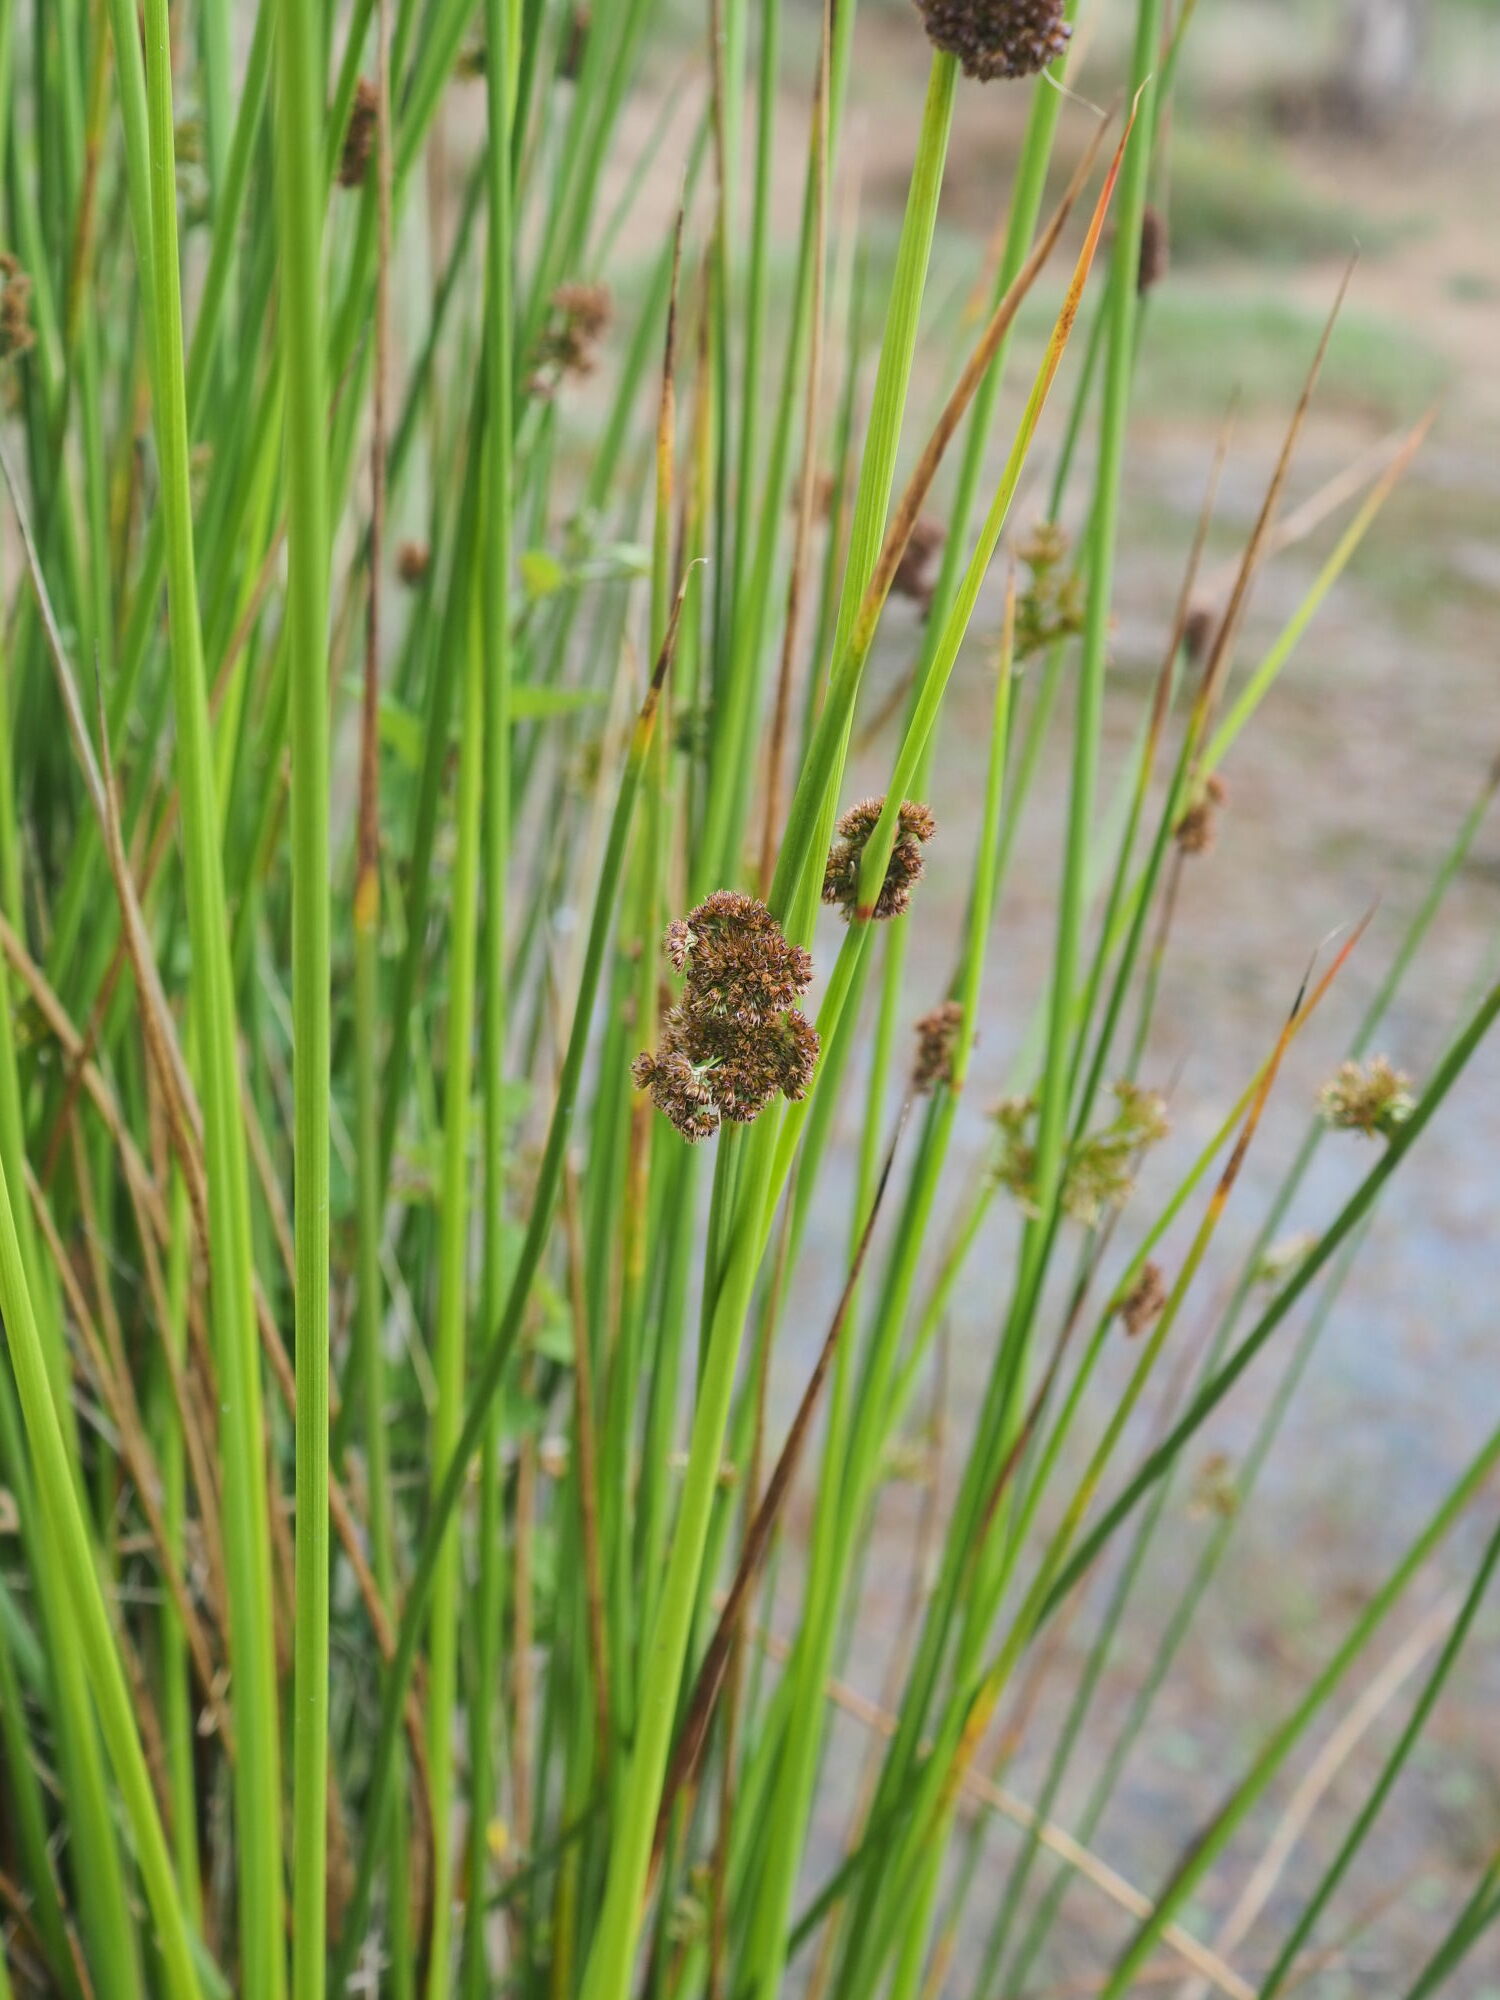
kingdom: Plantae
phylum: Tracheophyta
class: Liliopsida
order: Poales
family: Juncaceae
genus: Juncus
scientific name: Juncus effusus
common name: Soft rush
